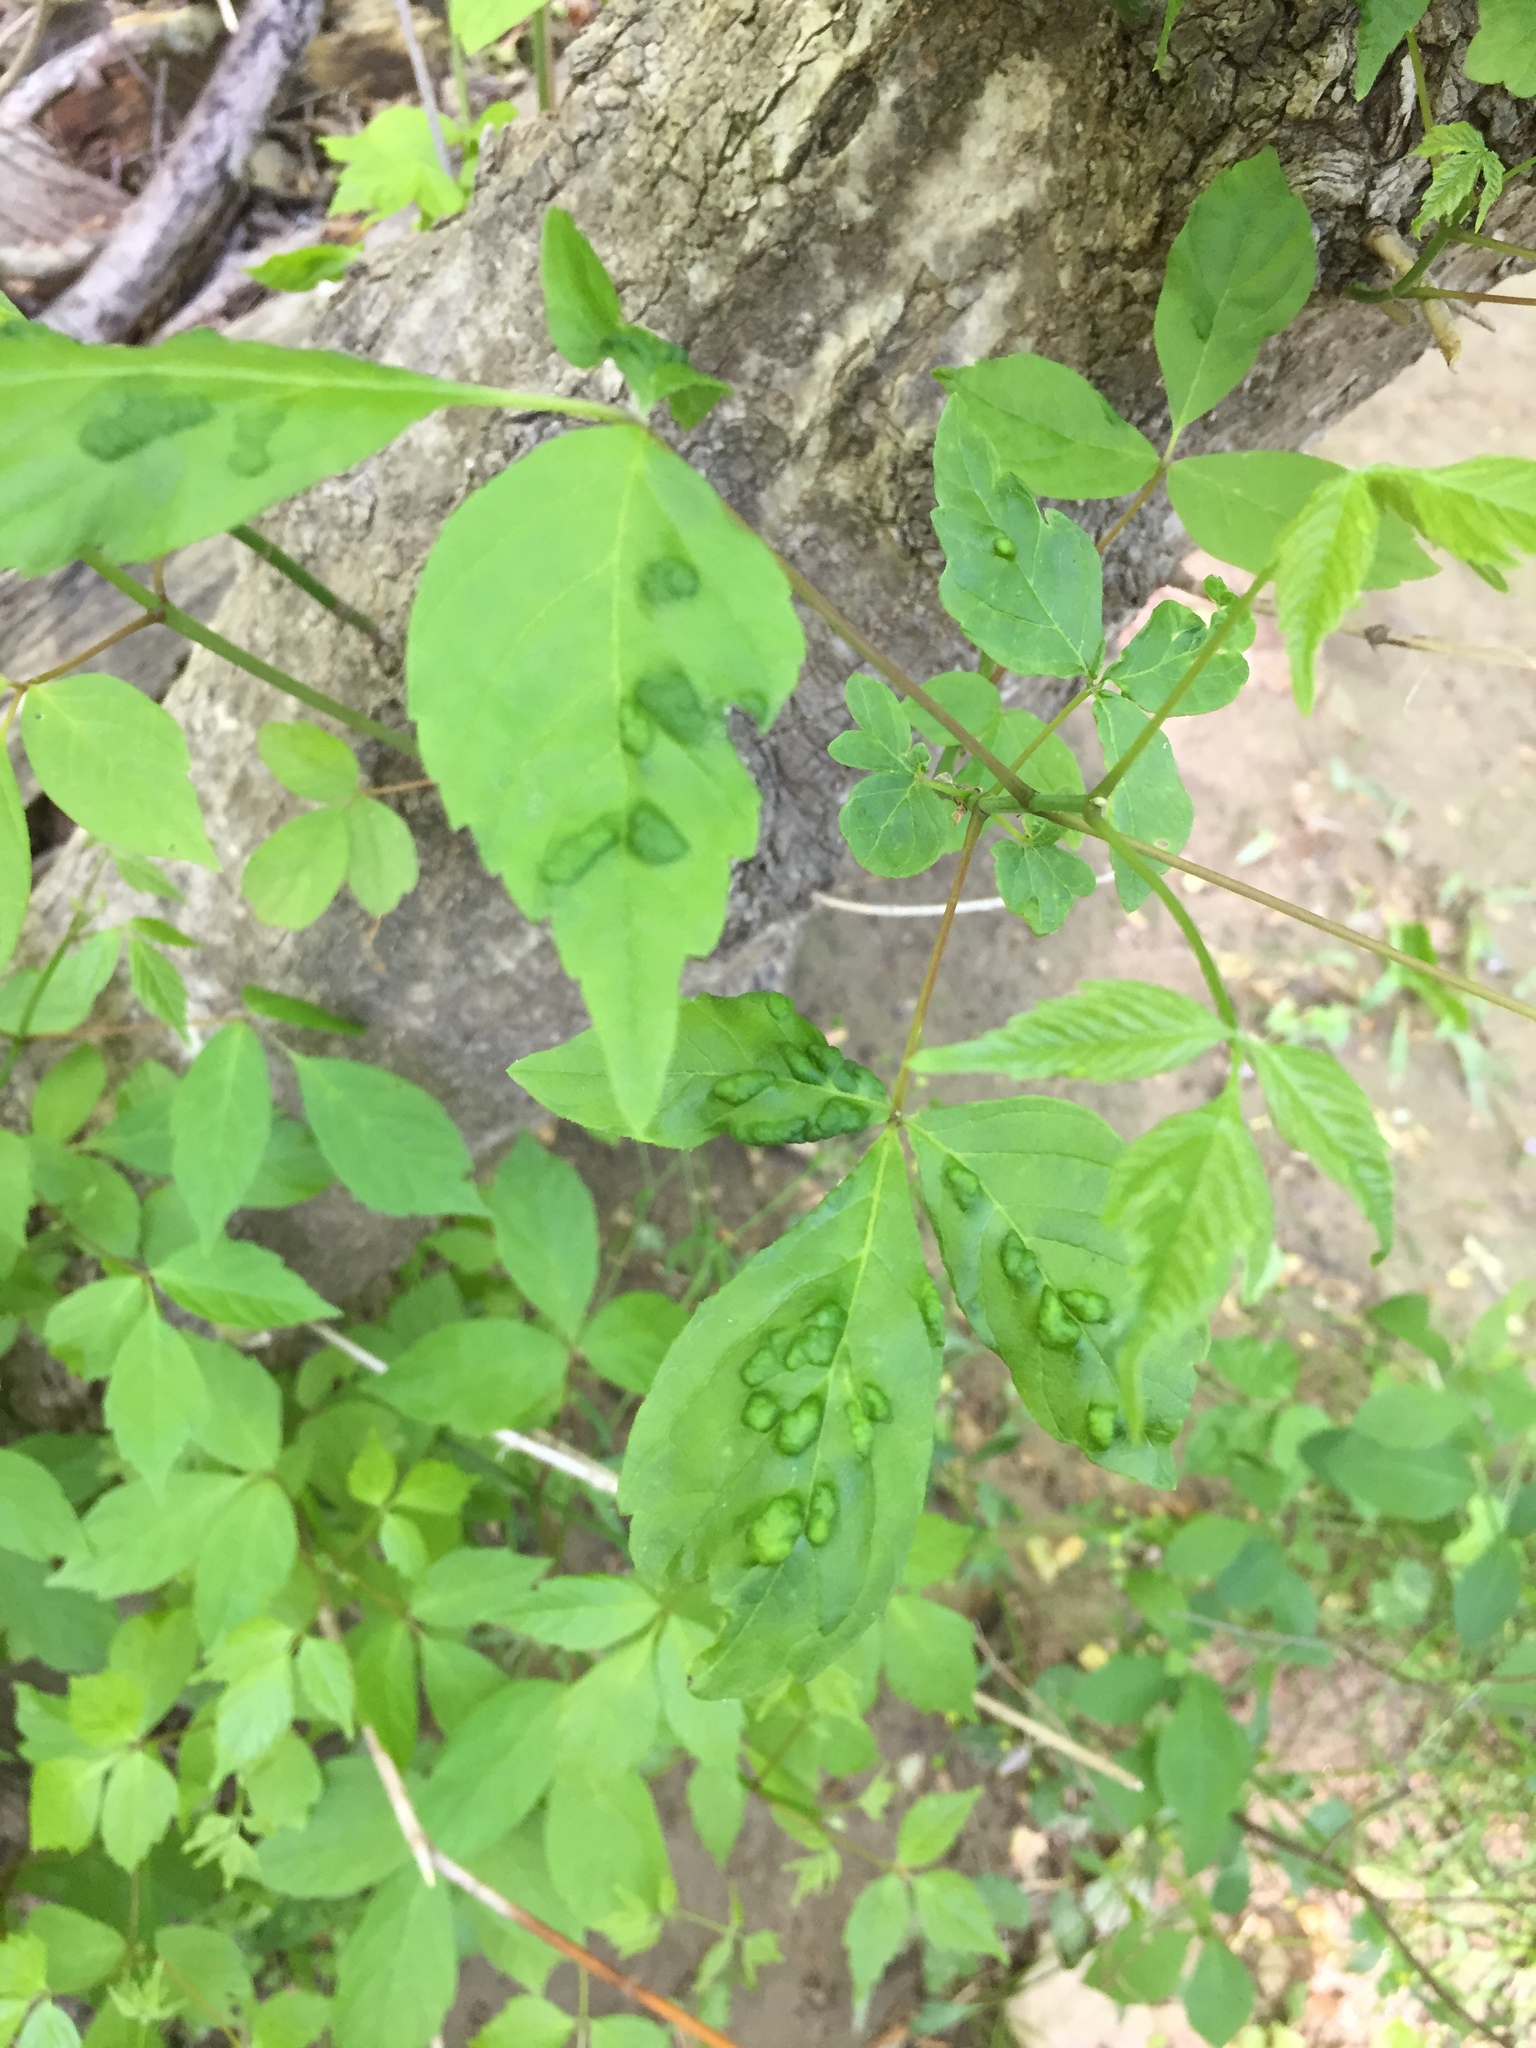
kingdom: Animalia
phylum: Arthropoda
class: Arachnida
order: Trombidiformes
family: Eriophyidae
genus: Aceria
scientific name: Aceria
